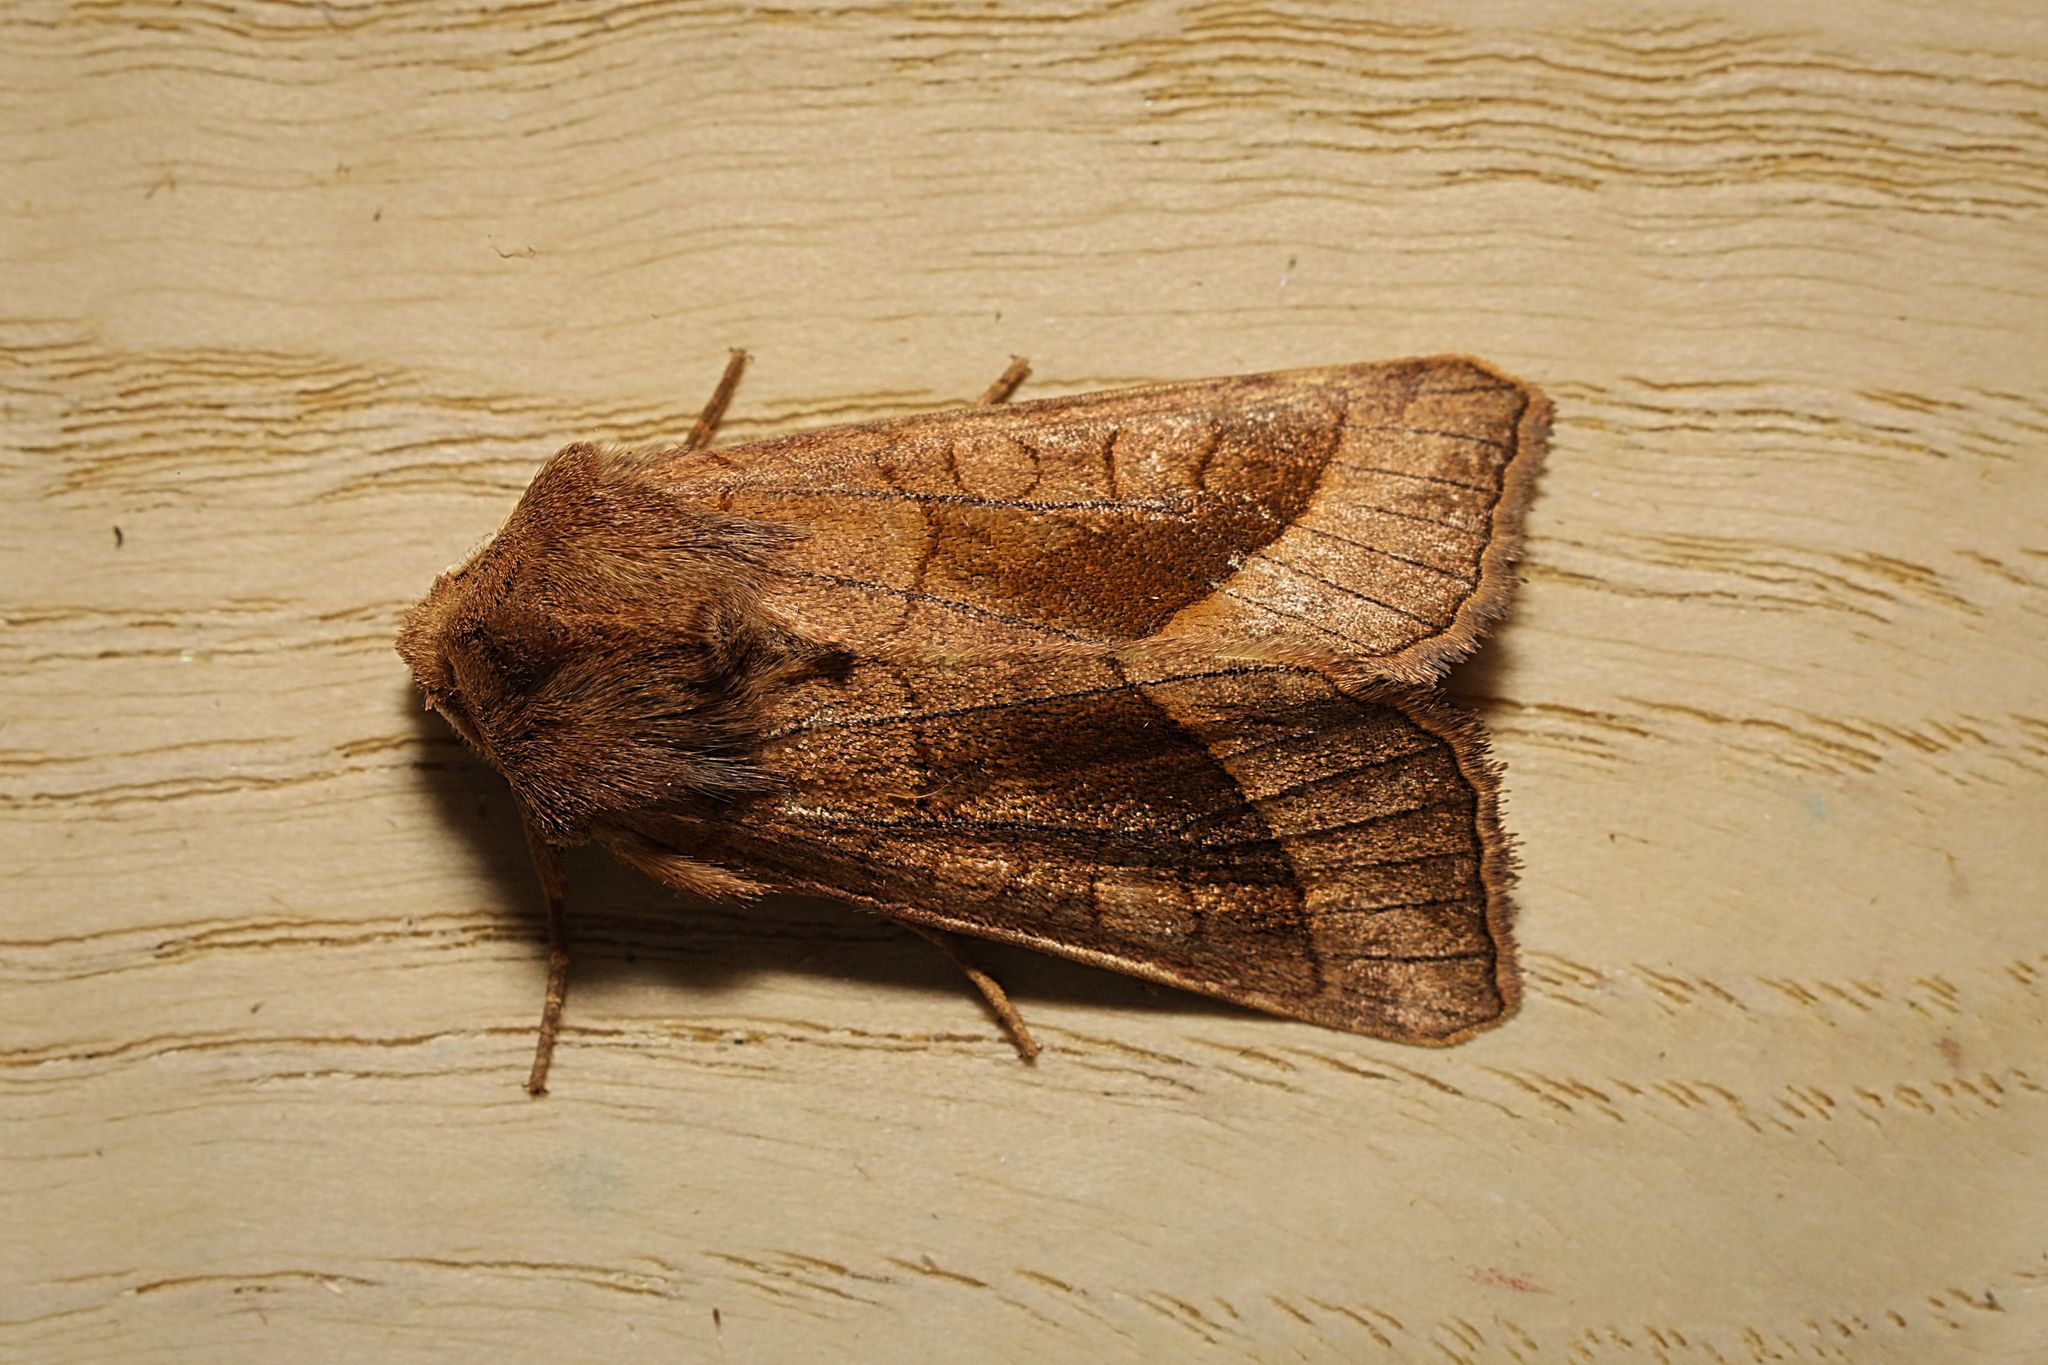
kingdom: Animalia
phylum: Arthropoda
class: Insecta
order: Lepidoptera
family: Noctuidae
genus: Hydraecia
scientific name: Hydraecia micacea
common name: Rosy rustic
